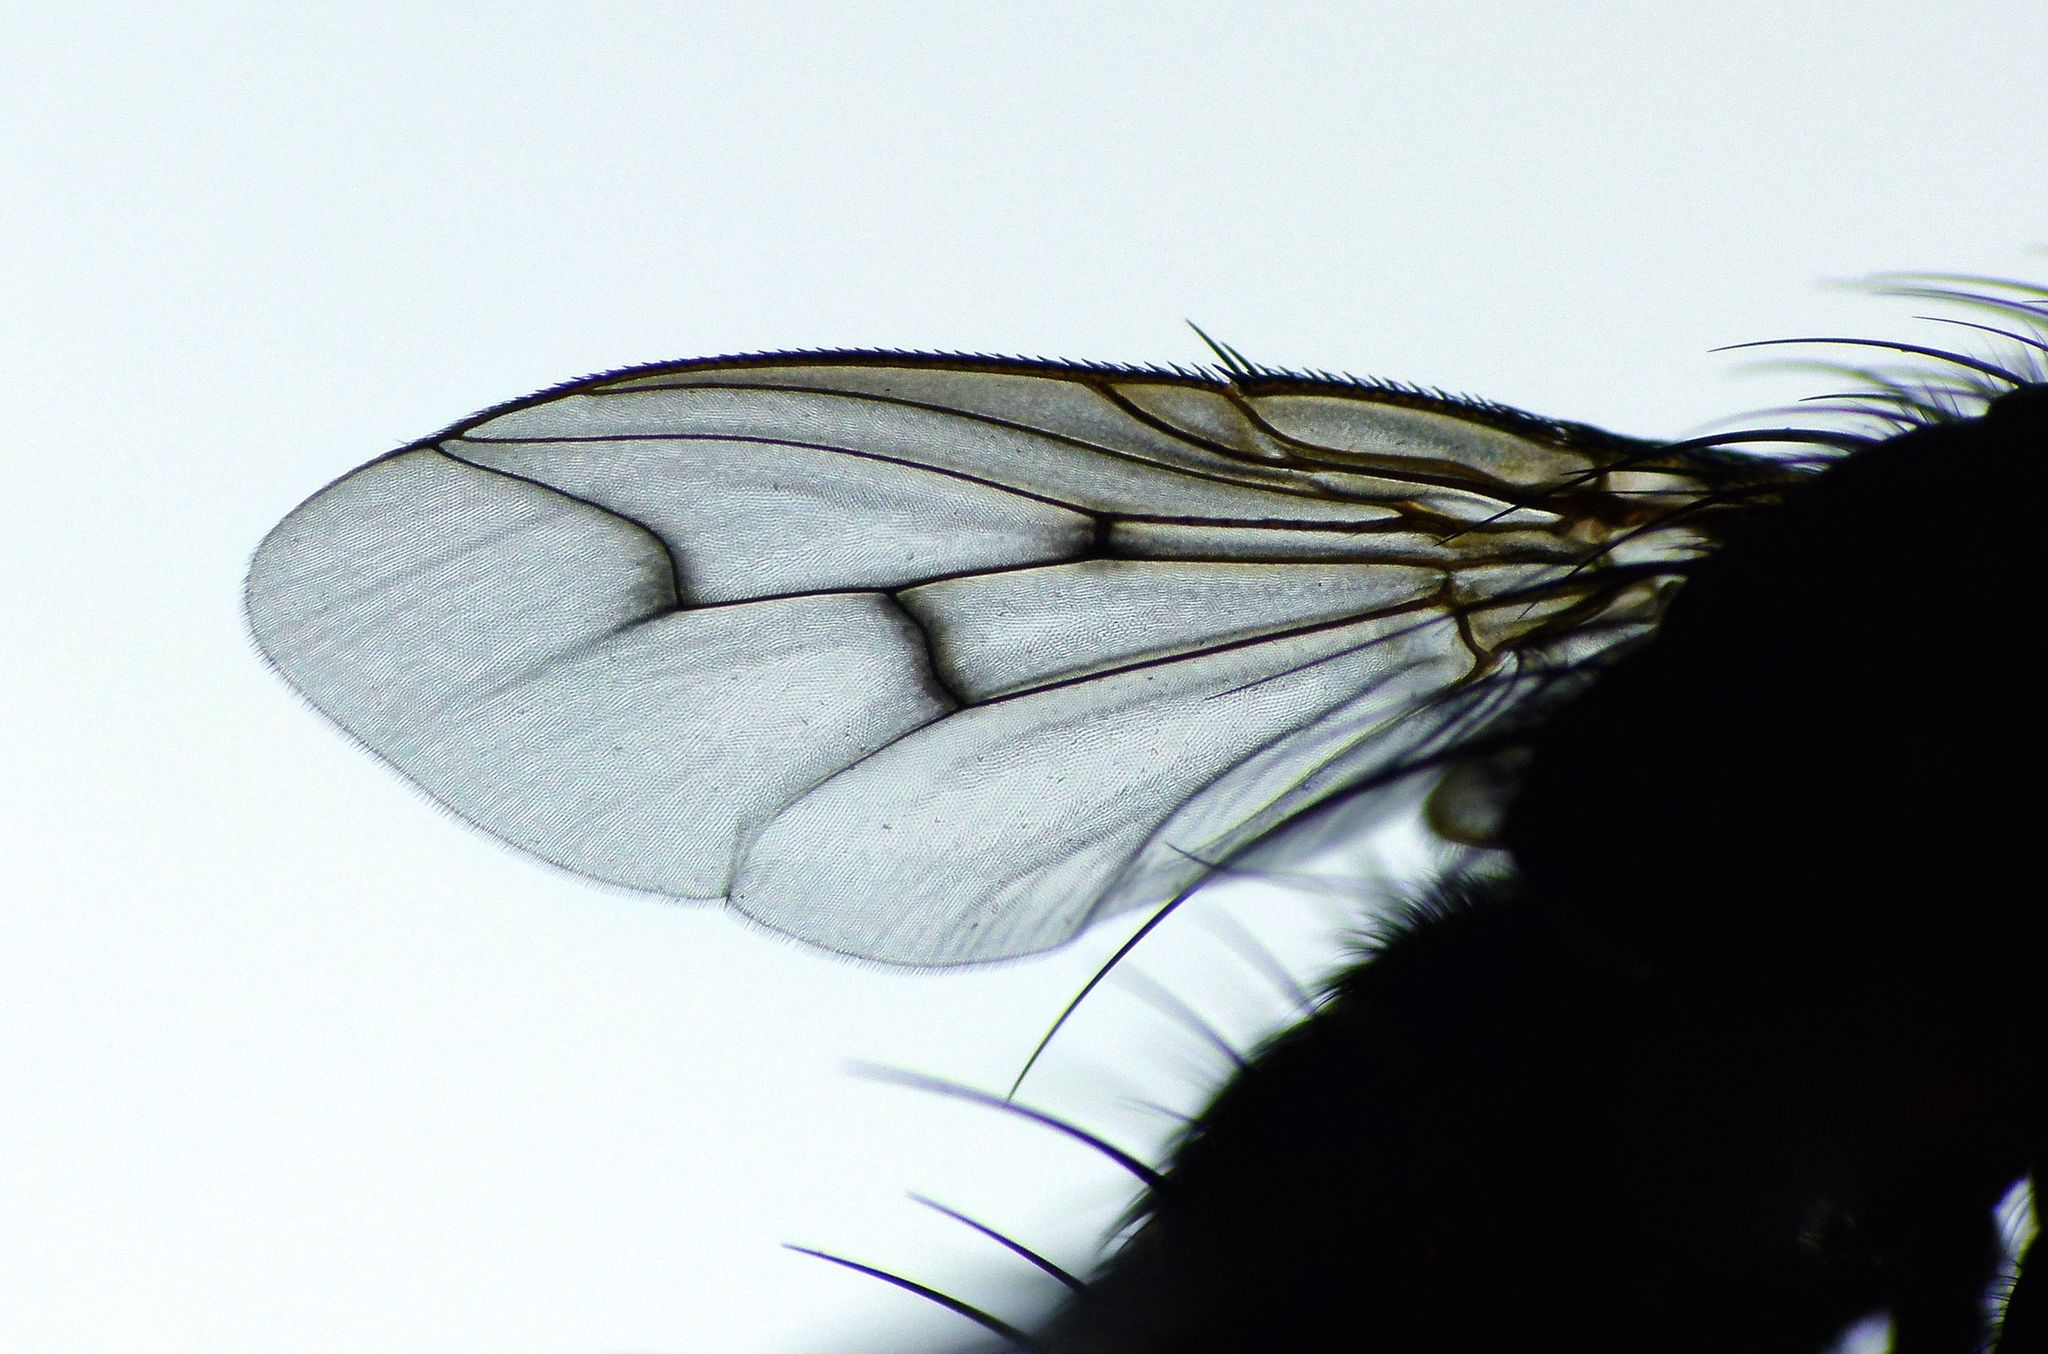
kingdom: Animalia
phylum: Arthropoda
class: Insecta
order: Diptera
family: Tachinidae
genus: Calcager
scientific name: Calcager apertum
